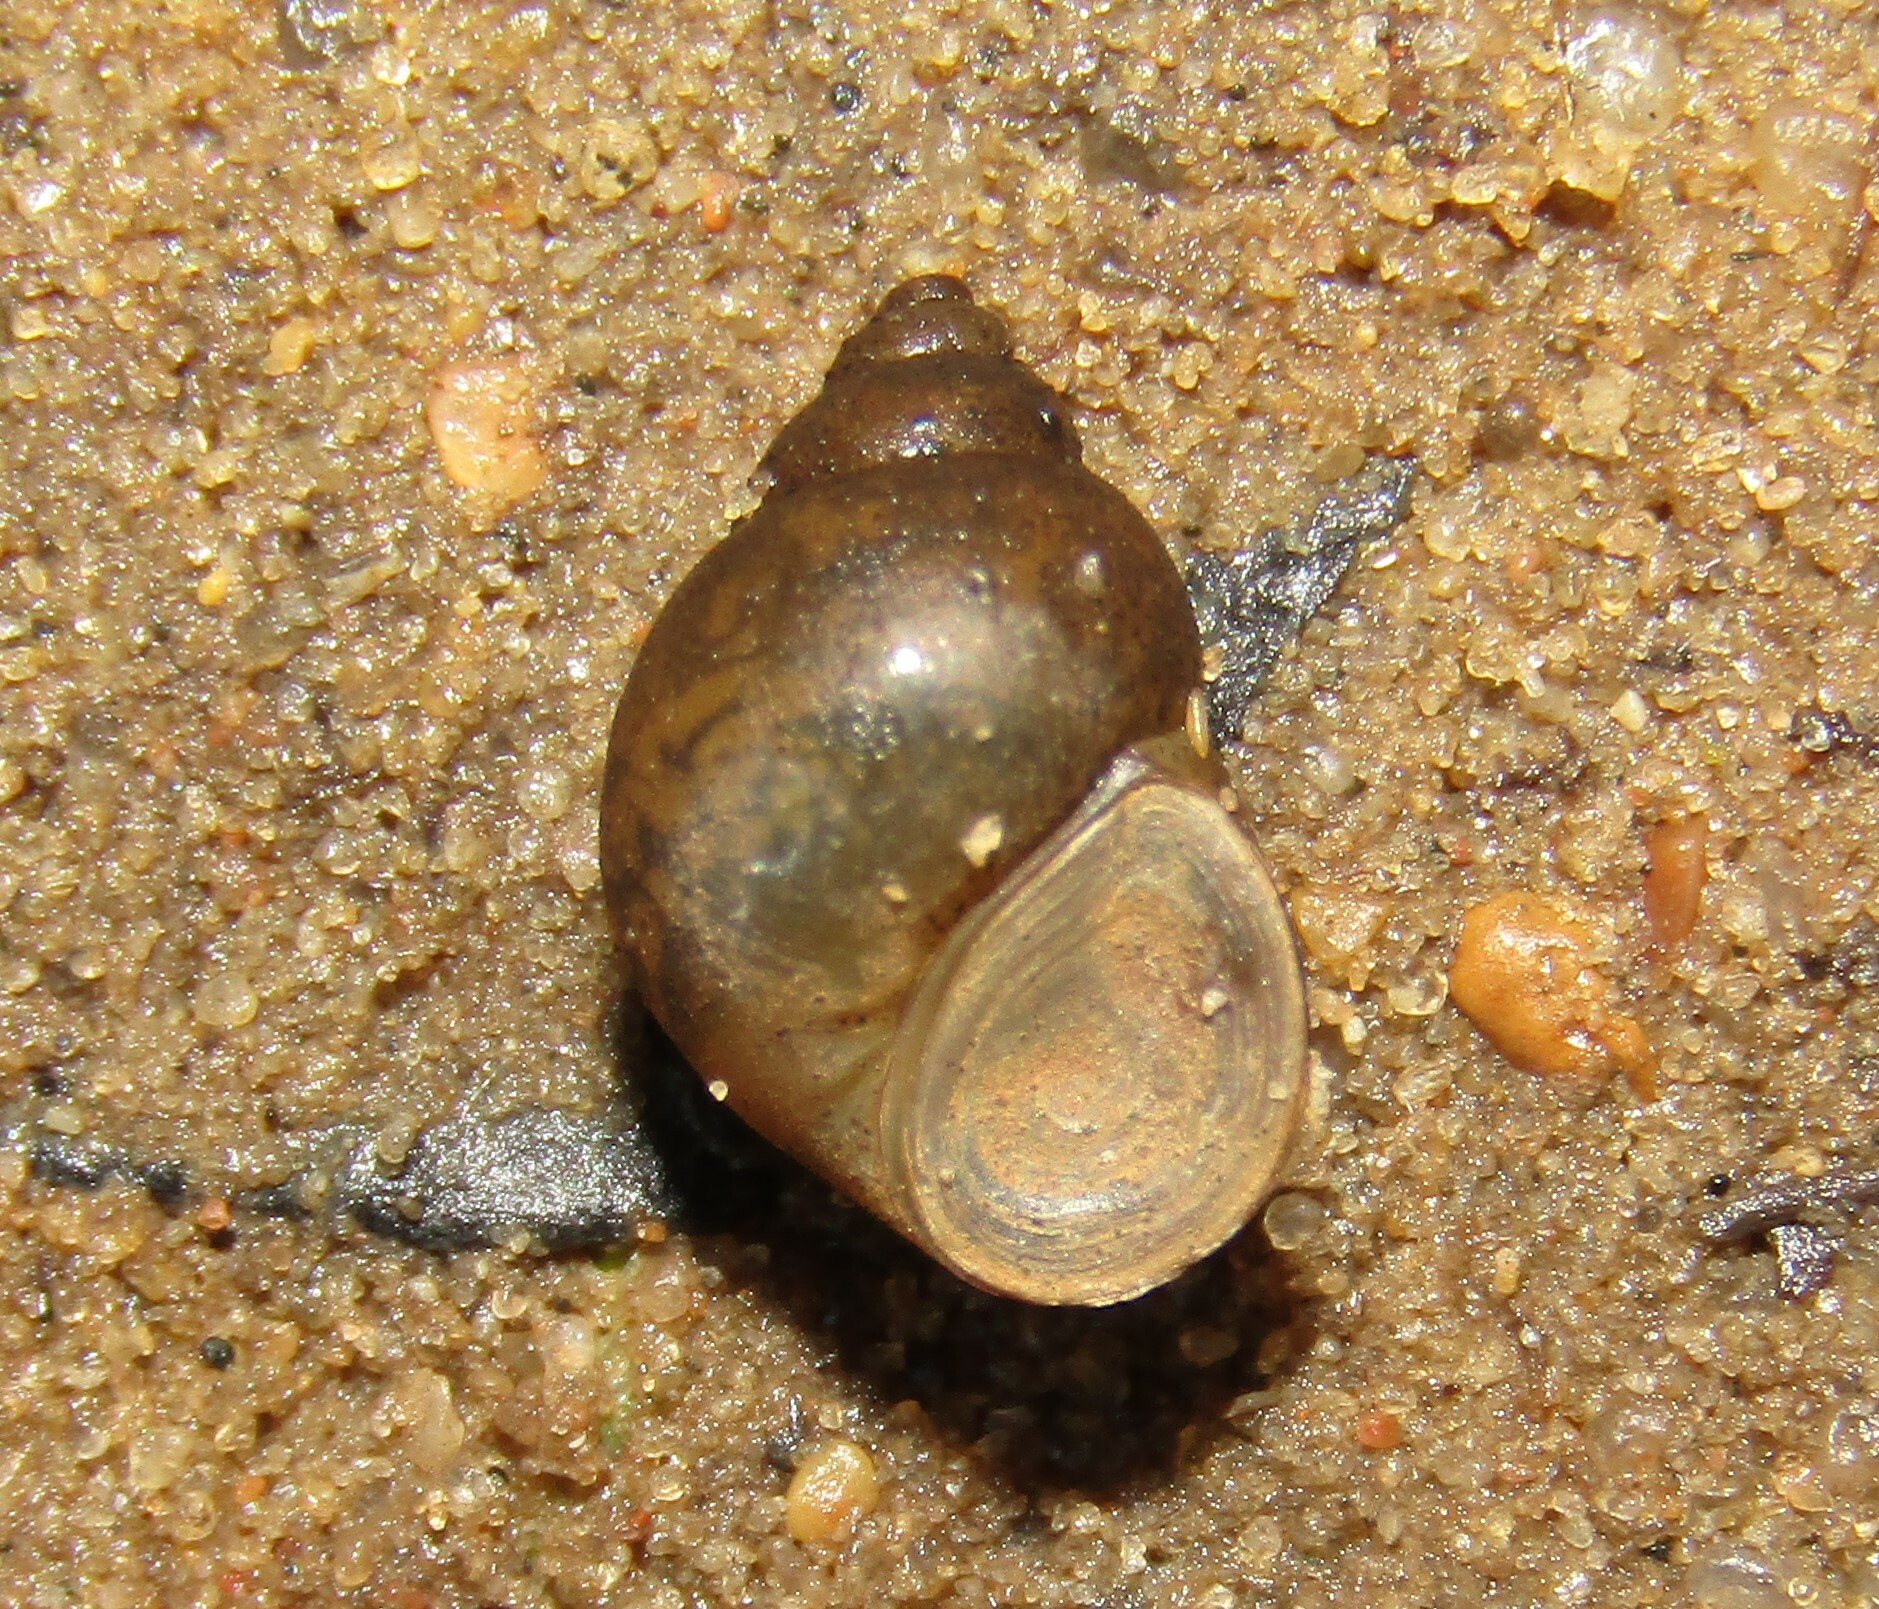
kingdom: Animalia
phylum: Mollusca
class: Gastropoda
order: Littorinimorpha
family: Bithyniidae
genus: Bithynia
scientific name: Bithynia tentaculata
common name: Common bithynia
